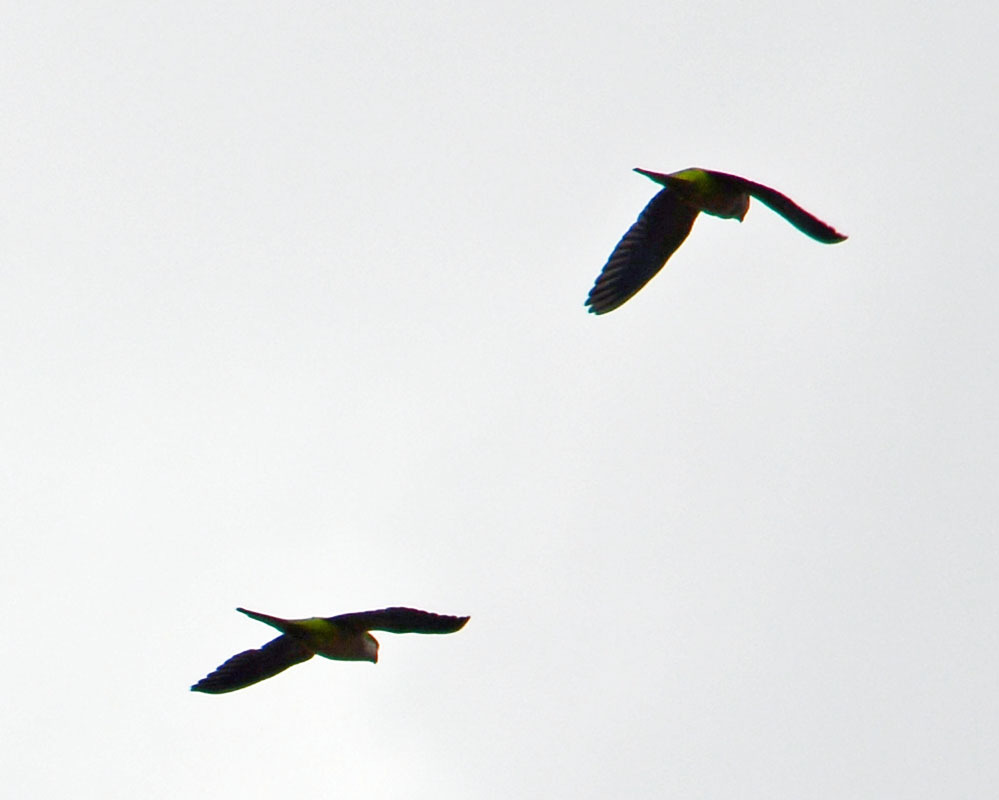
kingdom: Animalia
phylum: Chordata
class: Aves
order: Psittaciformes
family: Psittacidae
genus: Myiopsitta
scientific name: Myiopsitta monachus
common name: Monk parakeet
